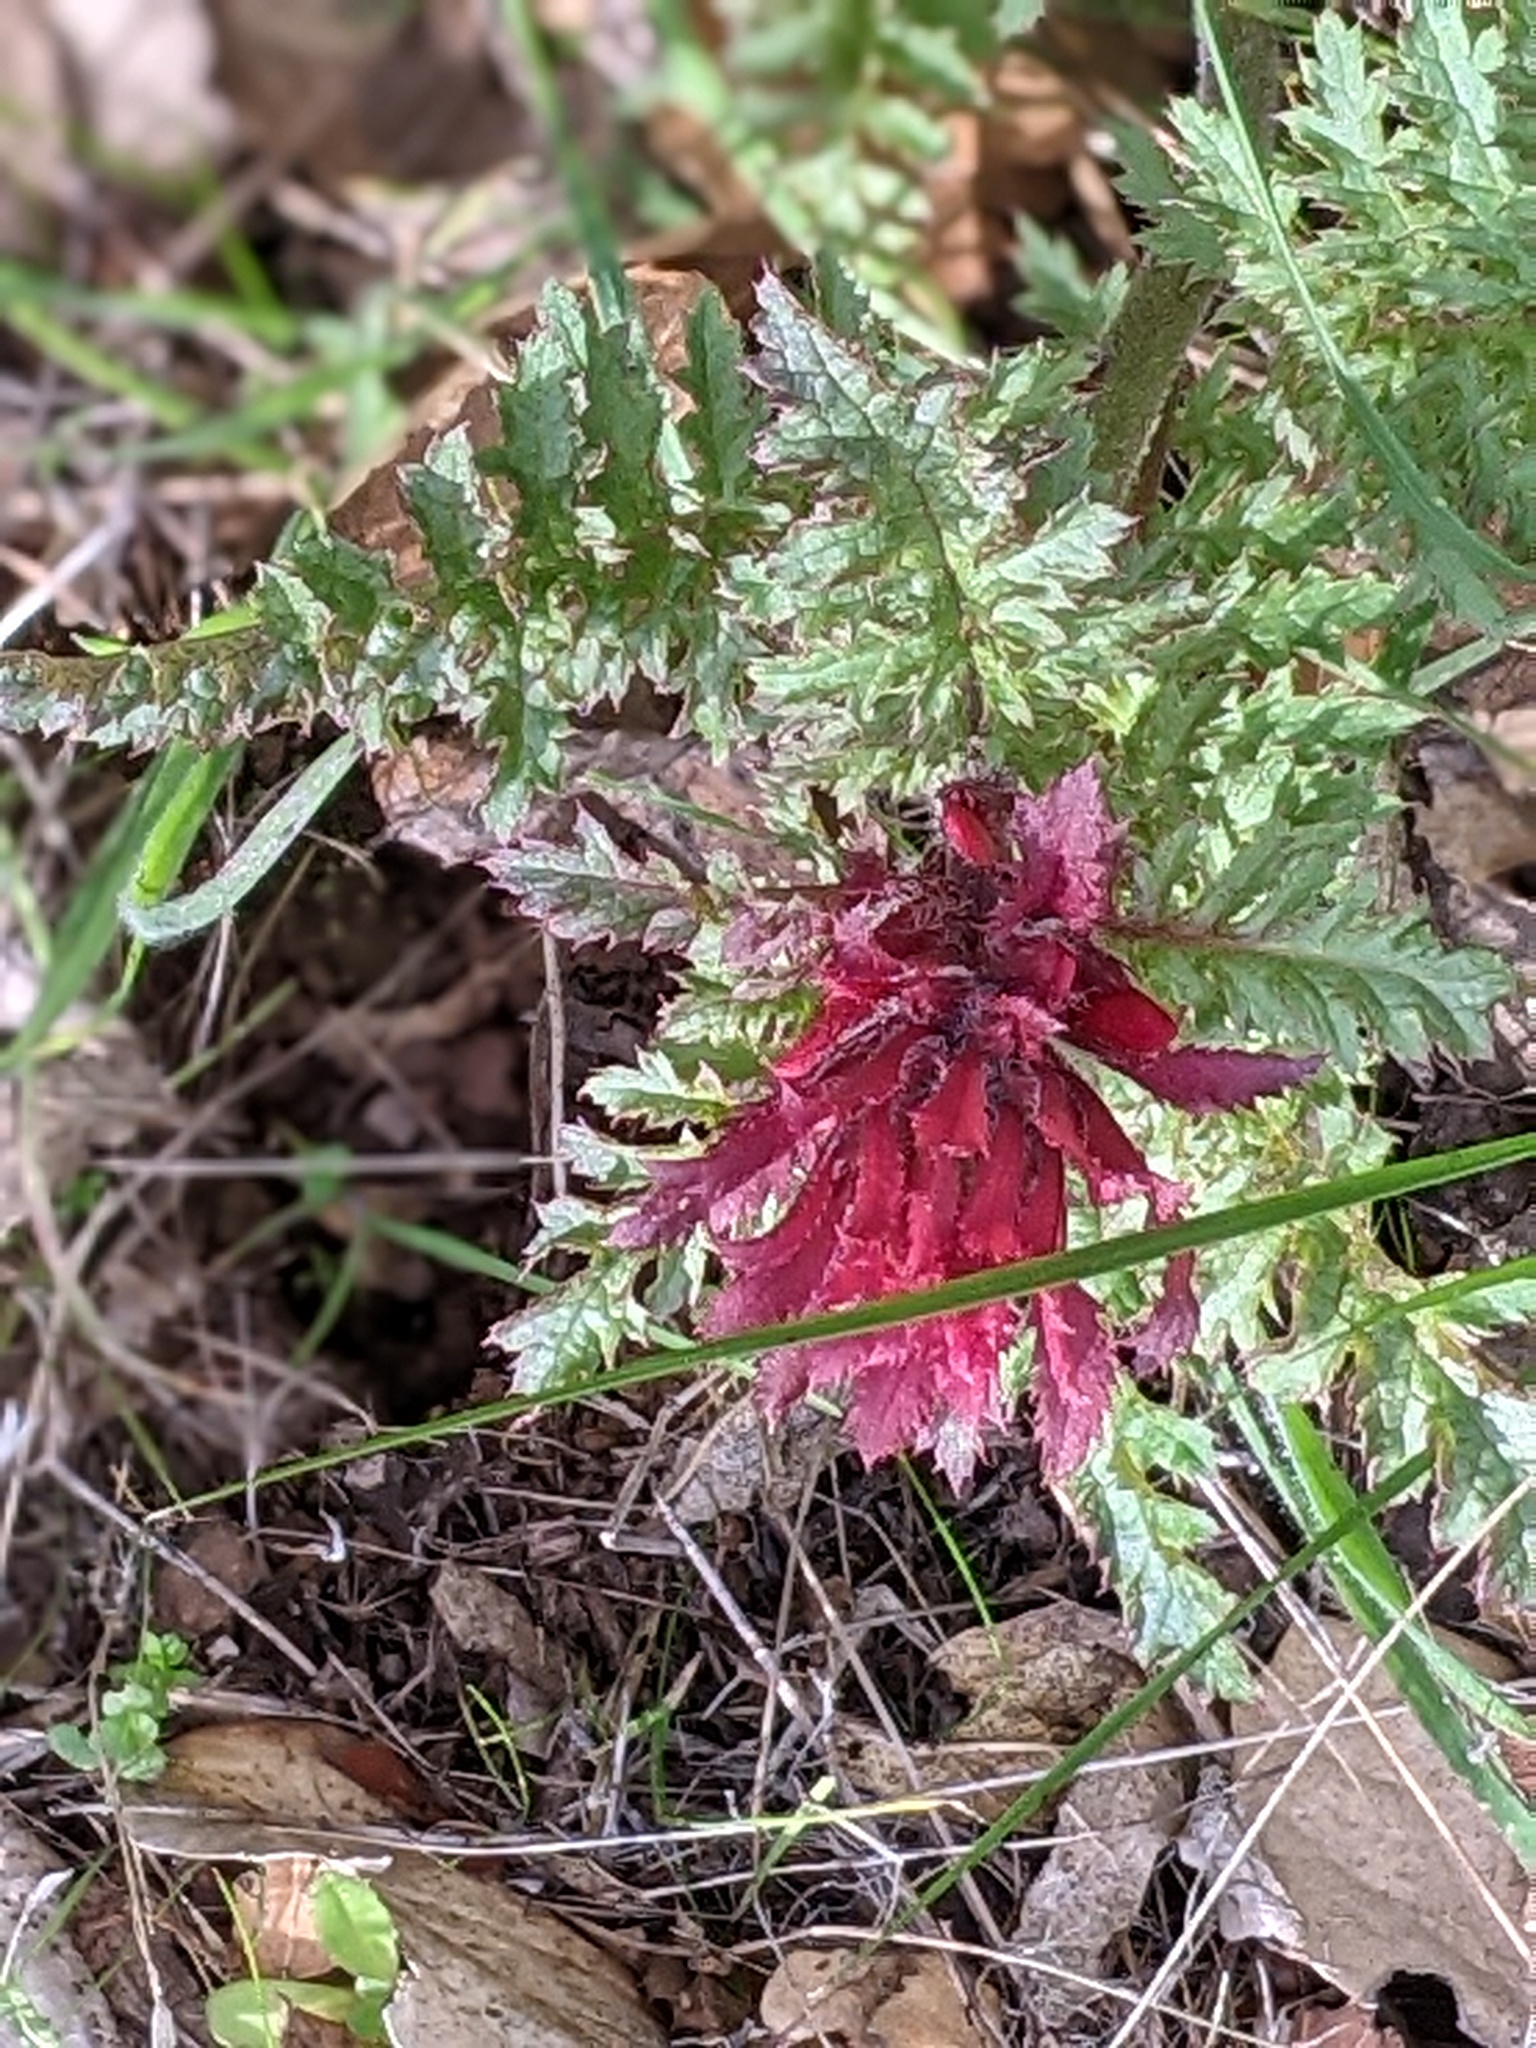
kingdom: Plantae
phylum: Tracheophyta
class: Magnoliopsida
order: Lamiales
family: Orobanchaceae
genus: Pedicularis
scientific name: Pedicularis densiflora
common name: Indian warrior
